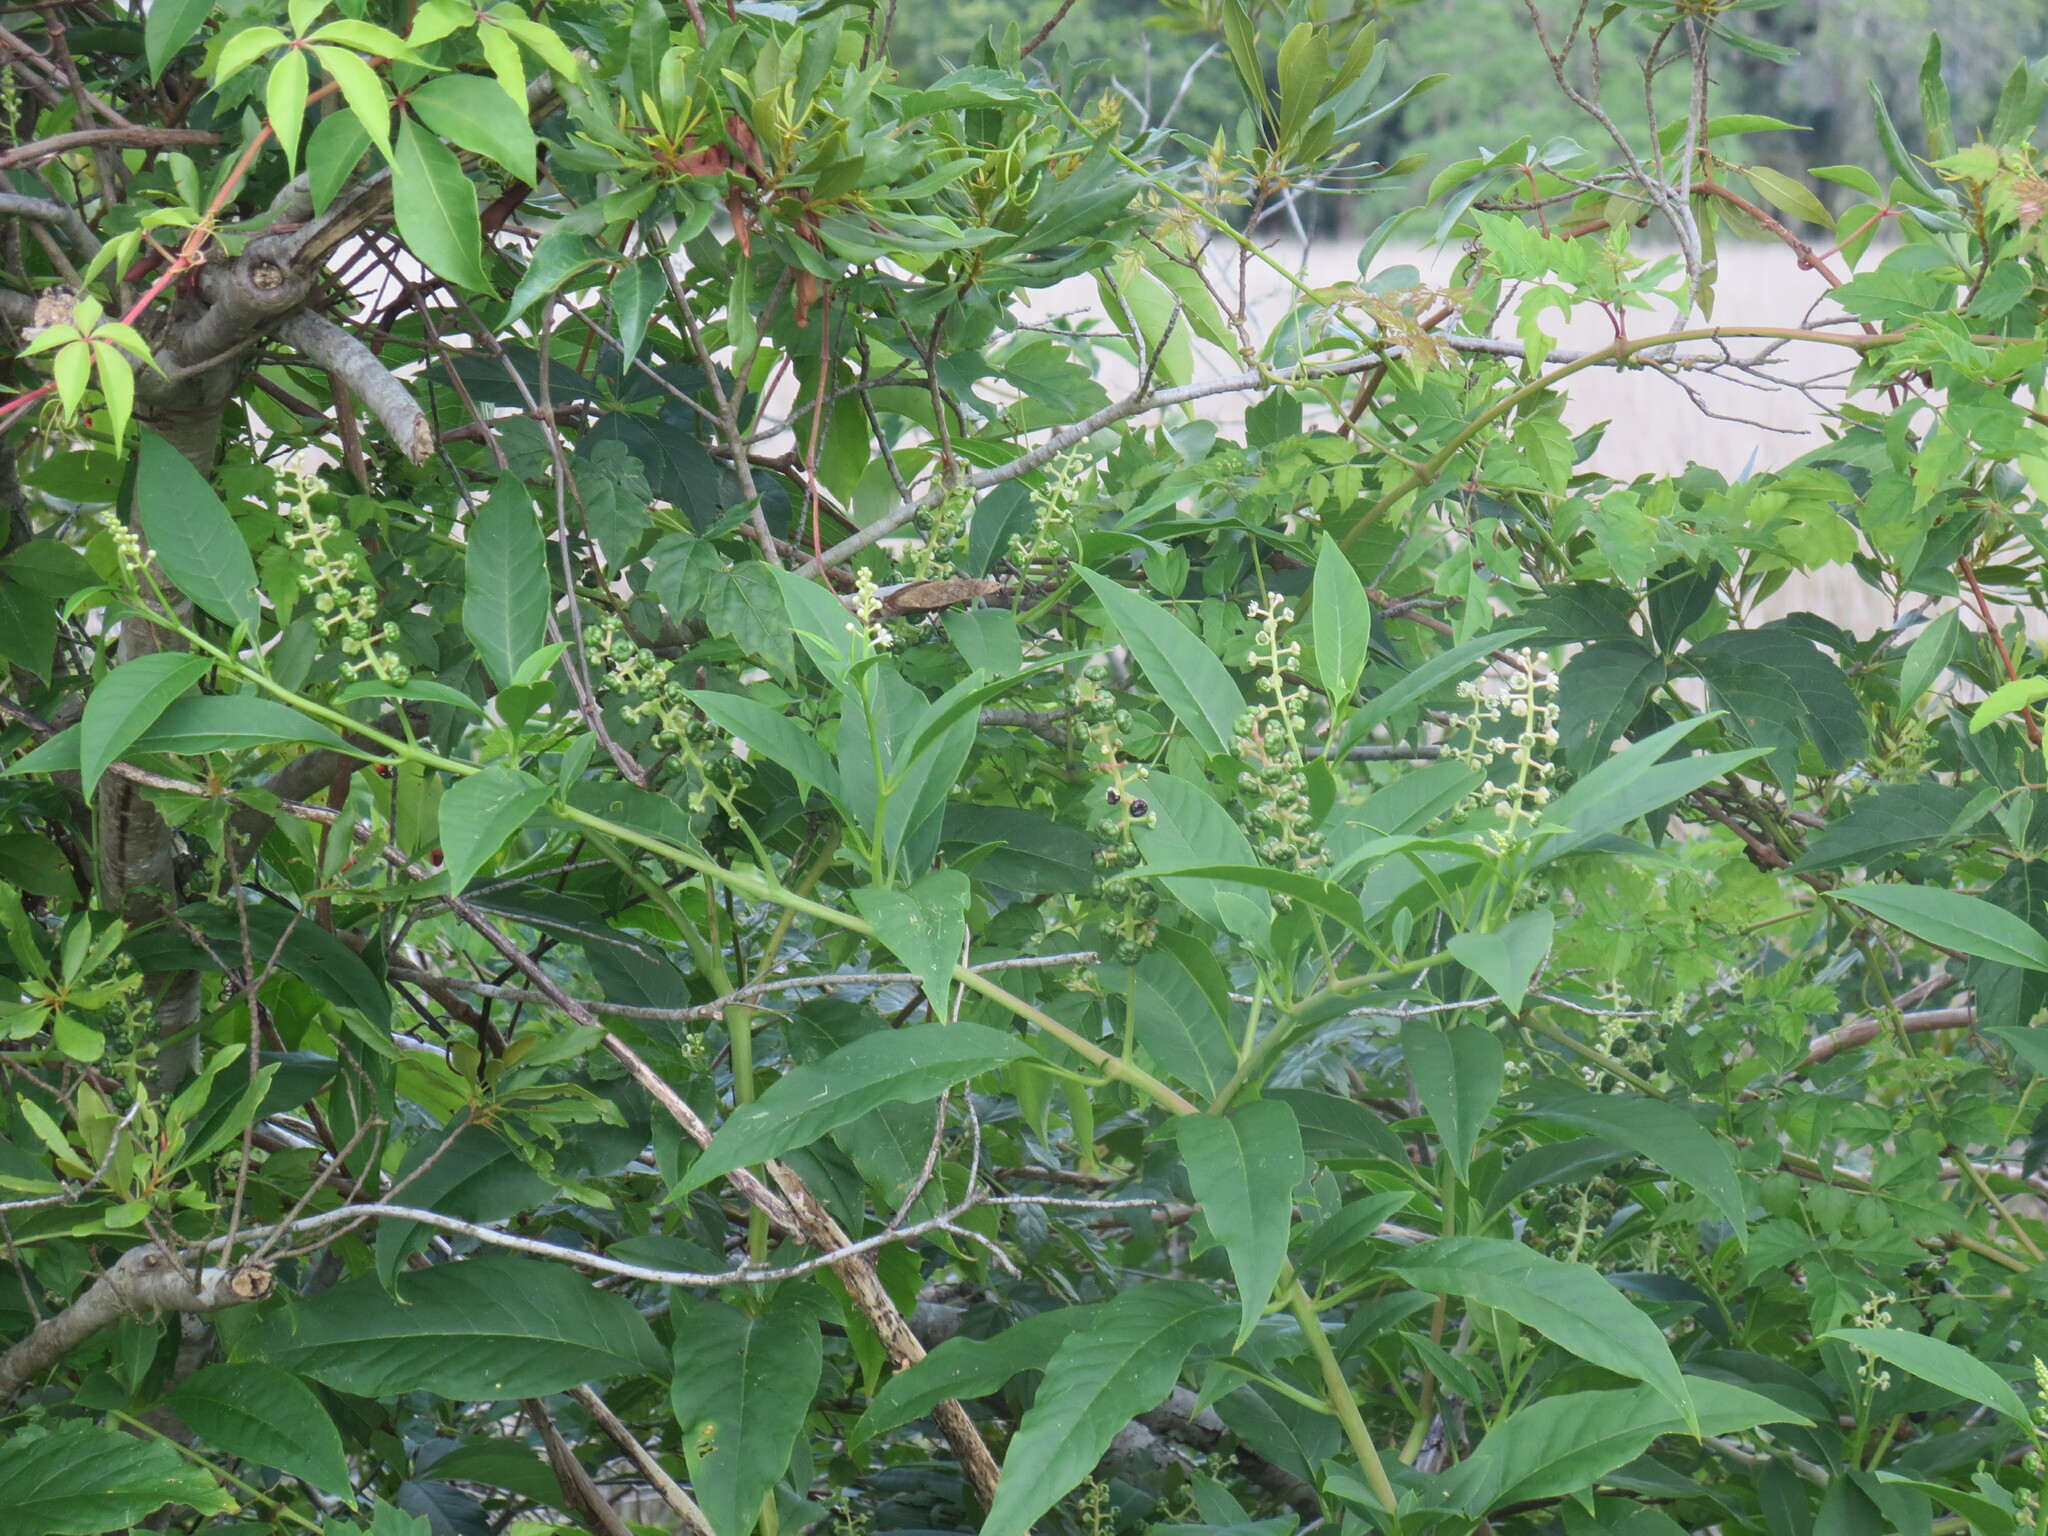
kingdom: Plantae
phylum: Tracheophyta
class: Magnoliopsida
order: Caryophyllales
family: Phytolaccaceae
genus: Phytolacca
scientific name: Phytolacca americana
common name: American pokeweed
